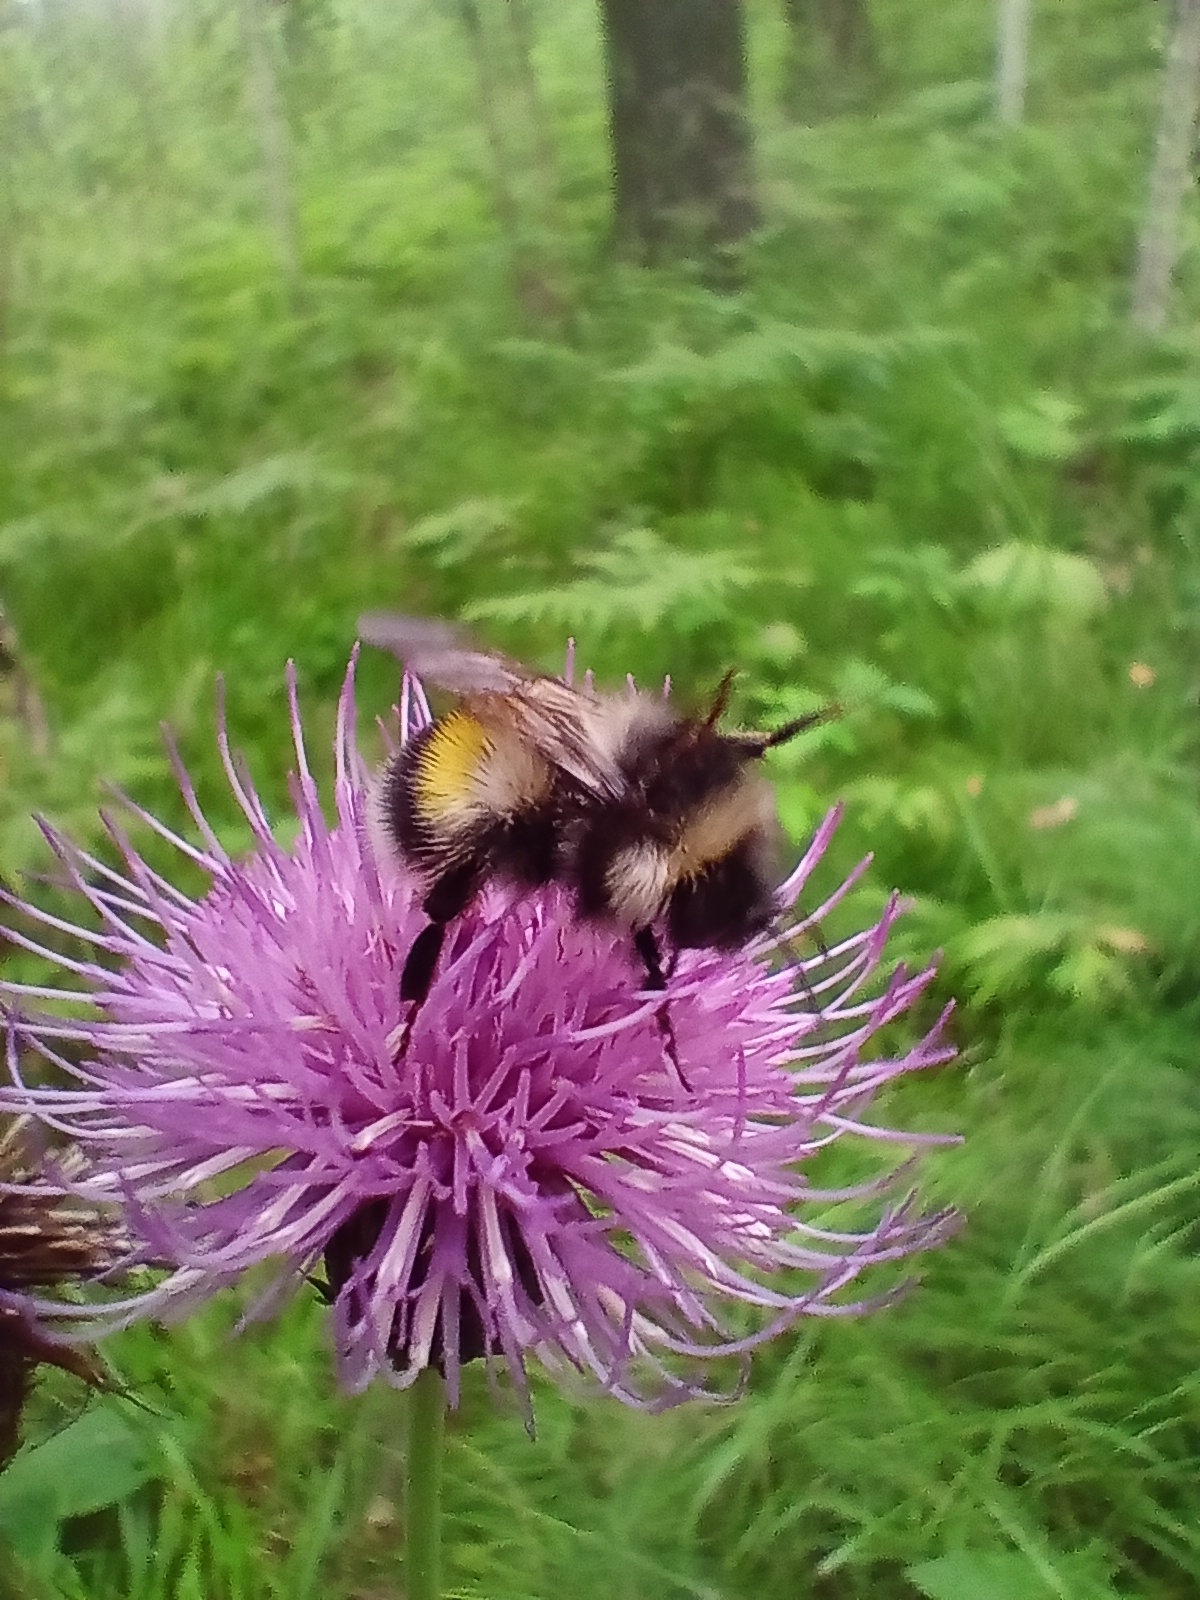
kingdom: Animalia
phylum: Arthropoda
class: Insecta
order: Hymenoptera
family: Apidae
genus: Bombus
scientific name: Bombus patagiatus
